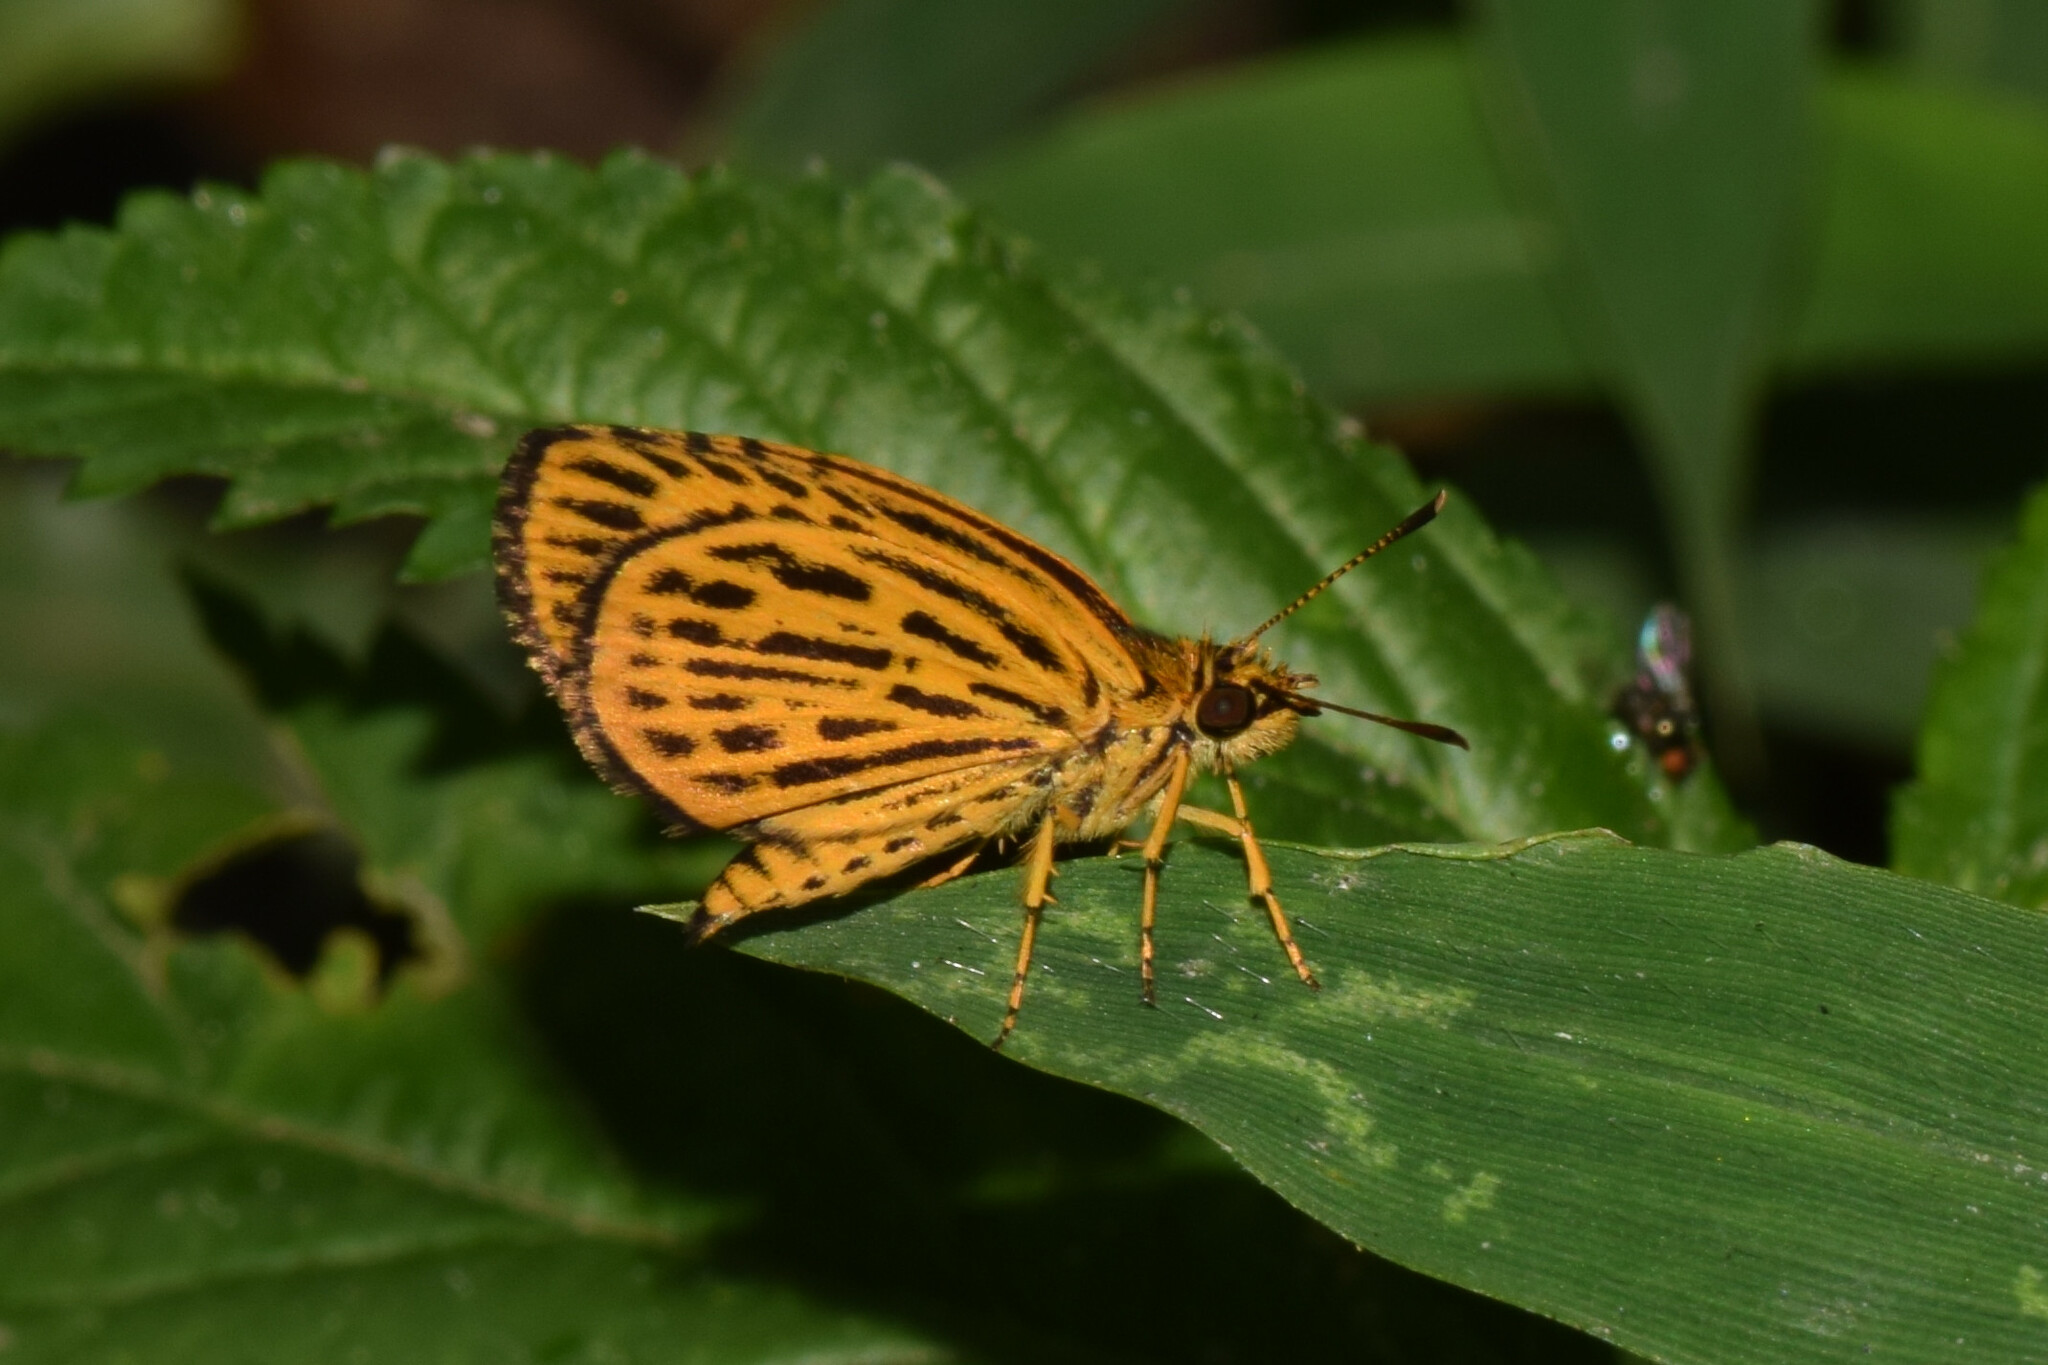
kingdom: Animalia
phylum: Arthropoda
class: Insecta
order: Lepidoptera
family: Hesperiidae
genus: Ampittia
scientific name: Ampittia subvittatus
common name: Tiger hopper
